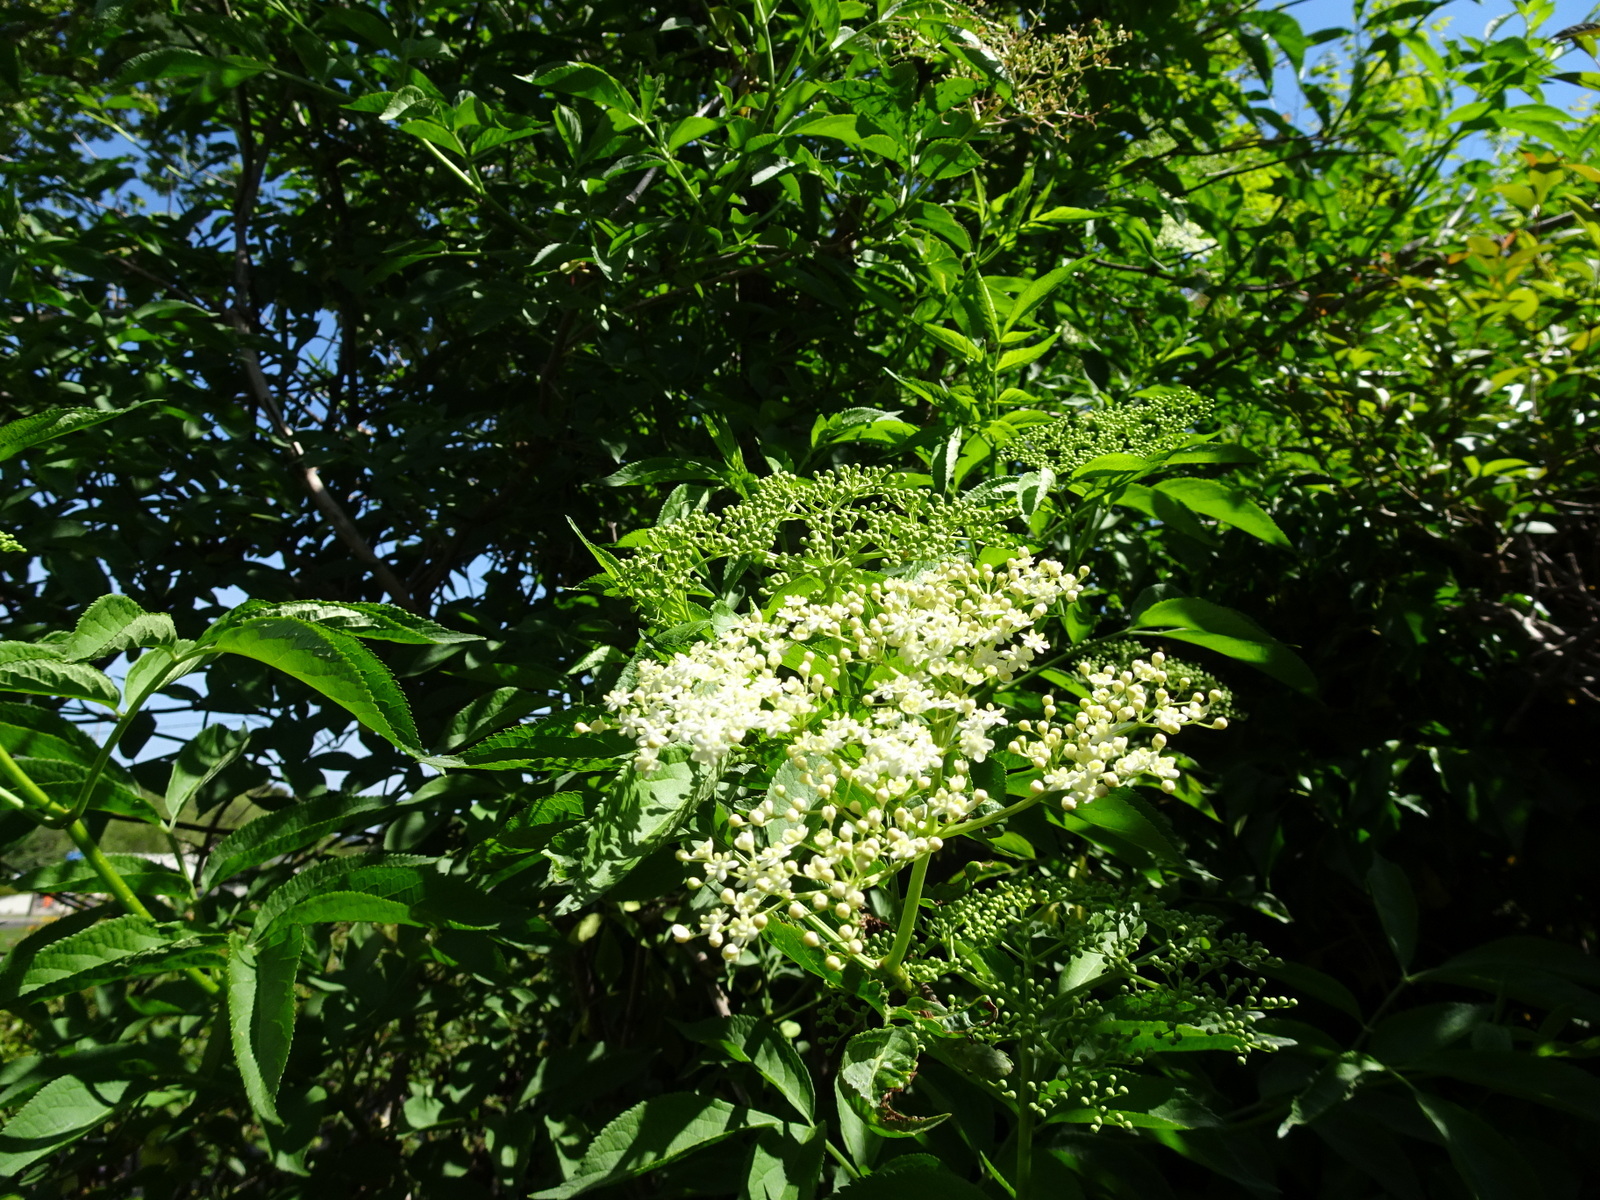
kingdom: Plantae
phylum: Tracheophyta
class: Magnoliopsida
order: Dipsacales
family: Viburnaceae
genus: Sambucus
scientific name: Sambucus nigra
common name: Elder
